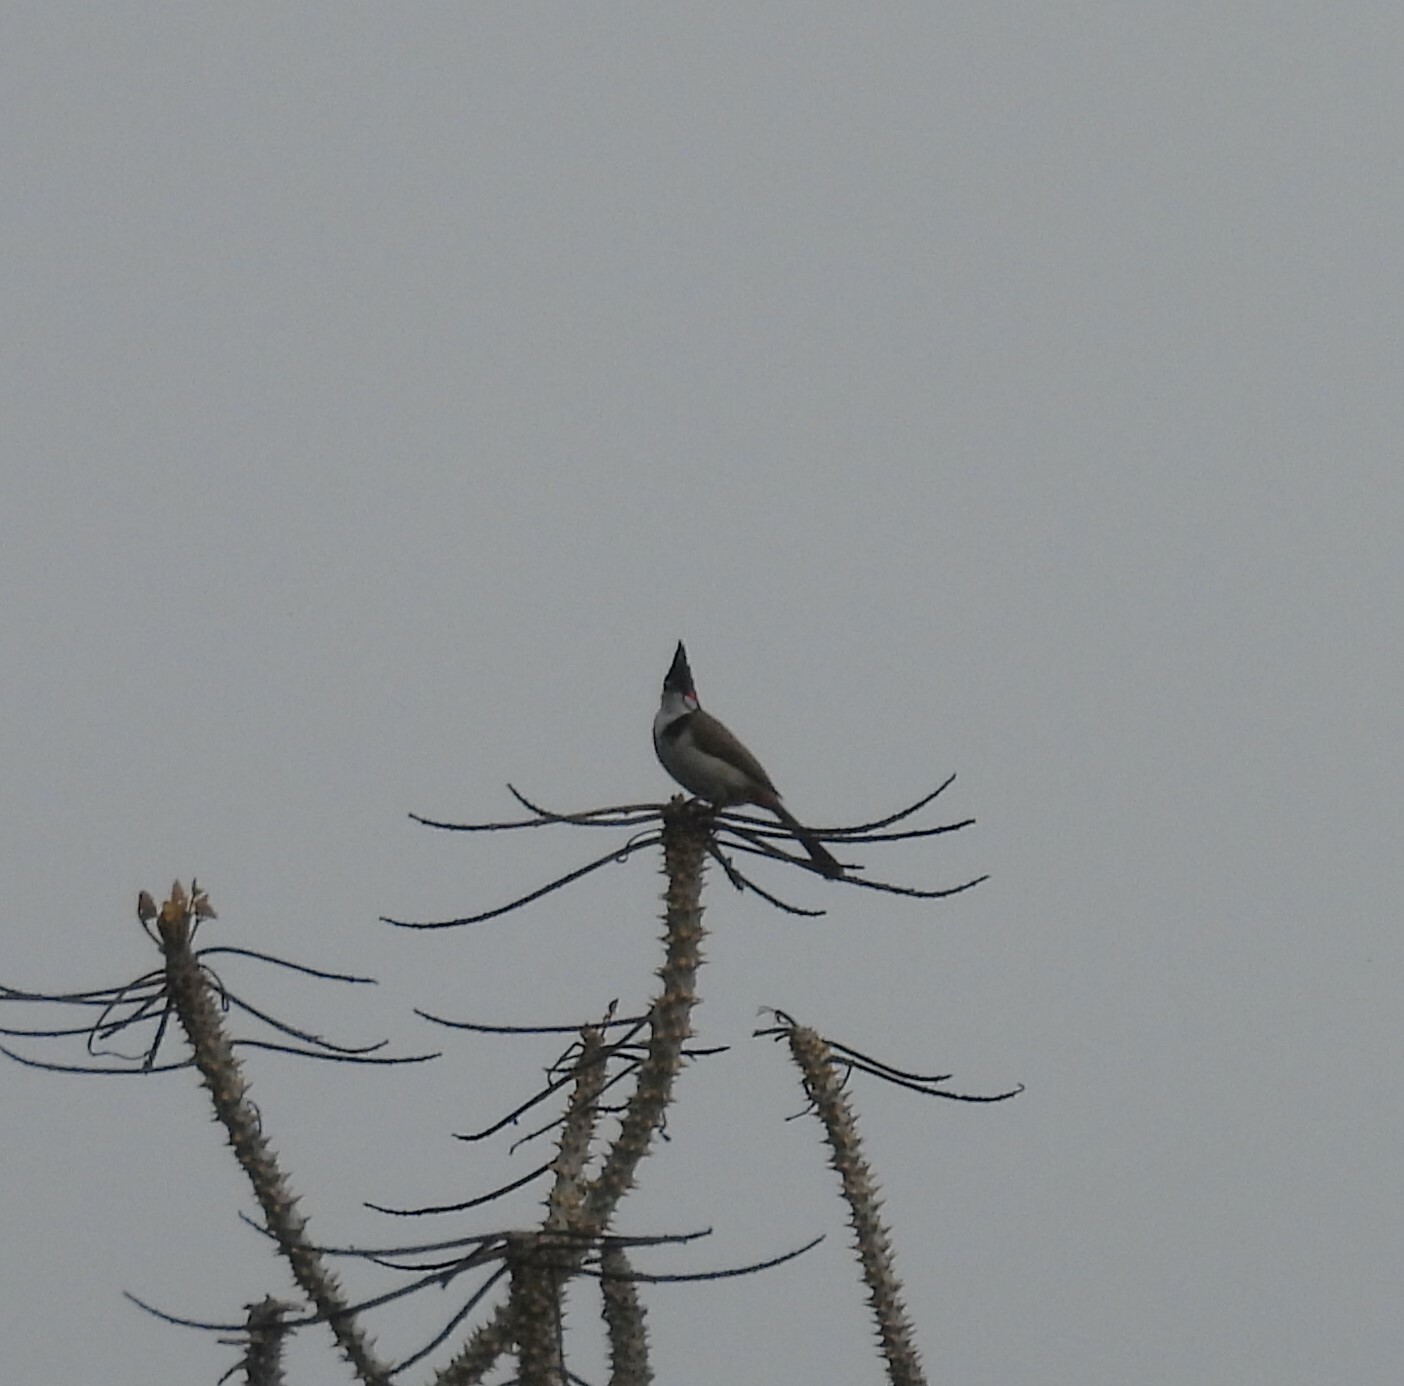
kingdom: Animalia
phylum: Chordata
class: Aves
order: Passeriformes
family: Pycnonotidae
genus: Pycnonotus
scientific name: Pycnonotus jocosus
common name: Red-whiskered bulbul
